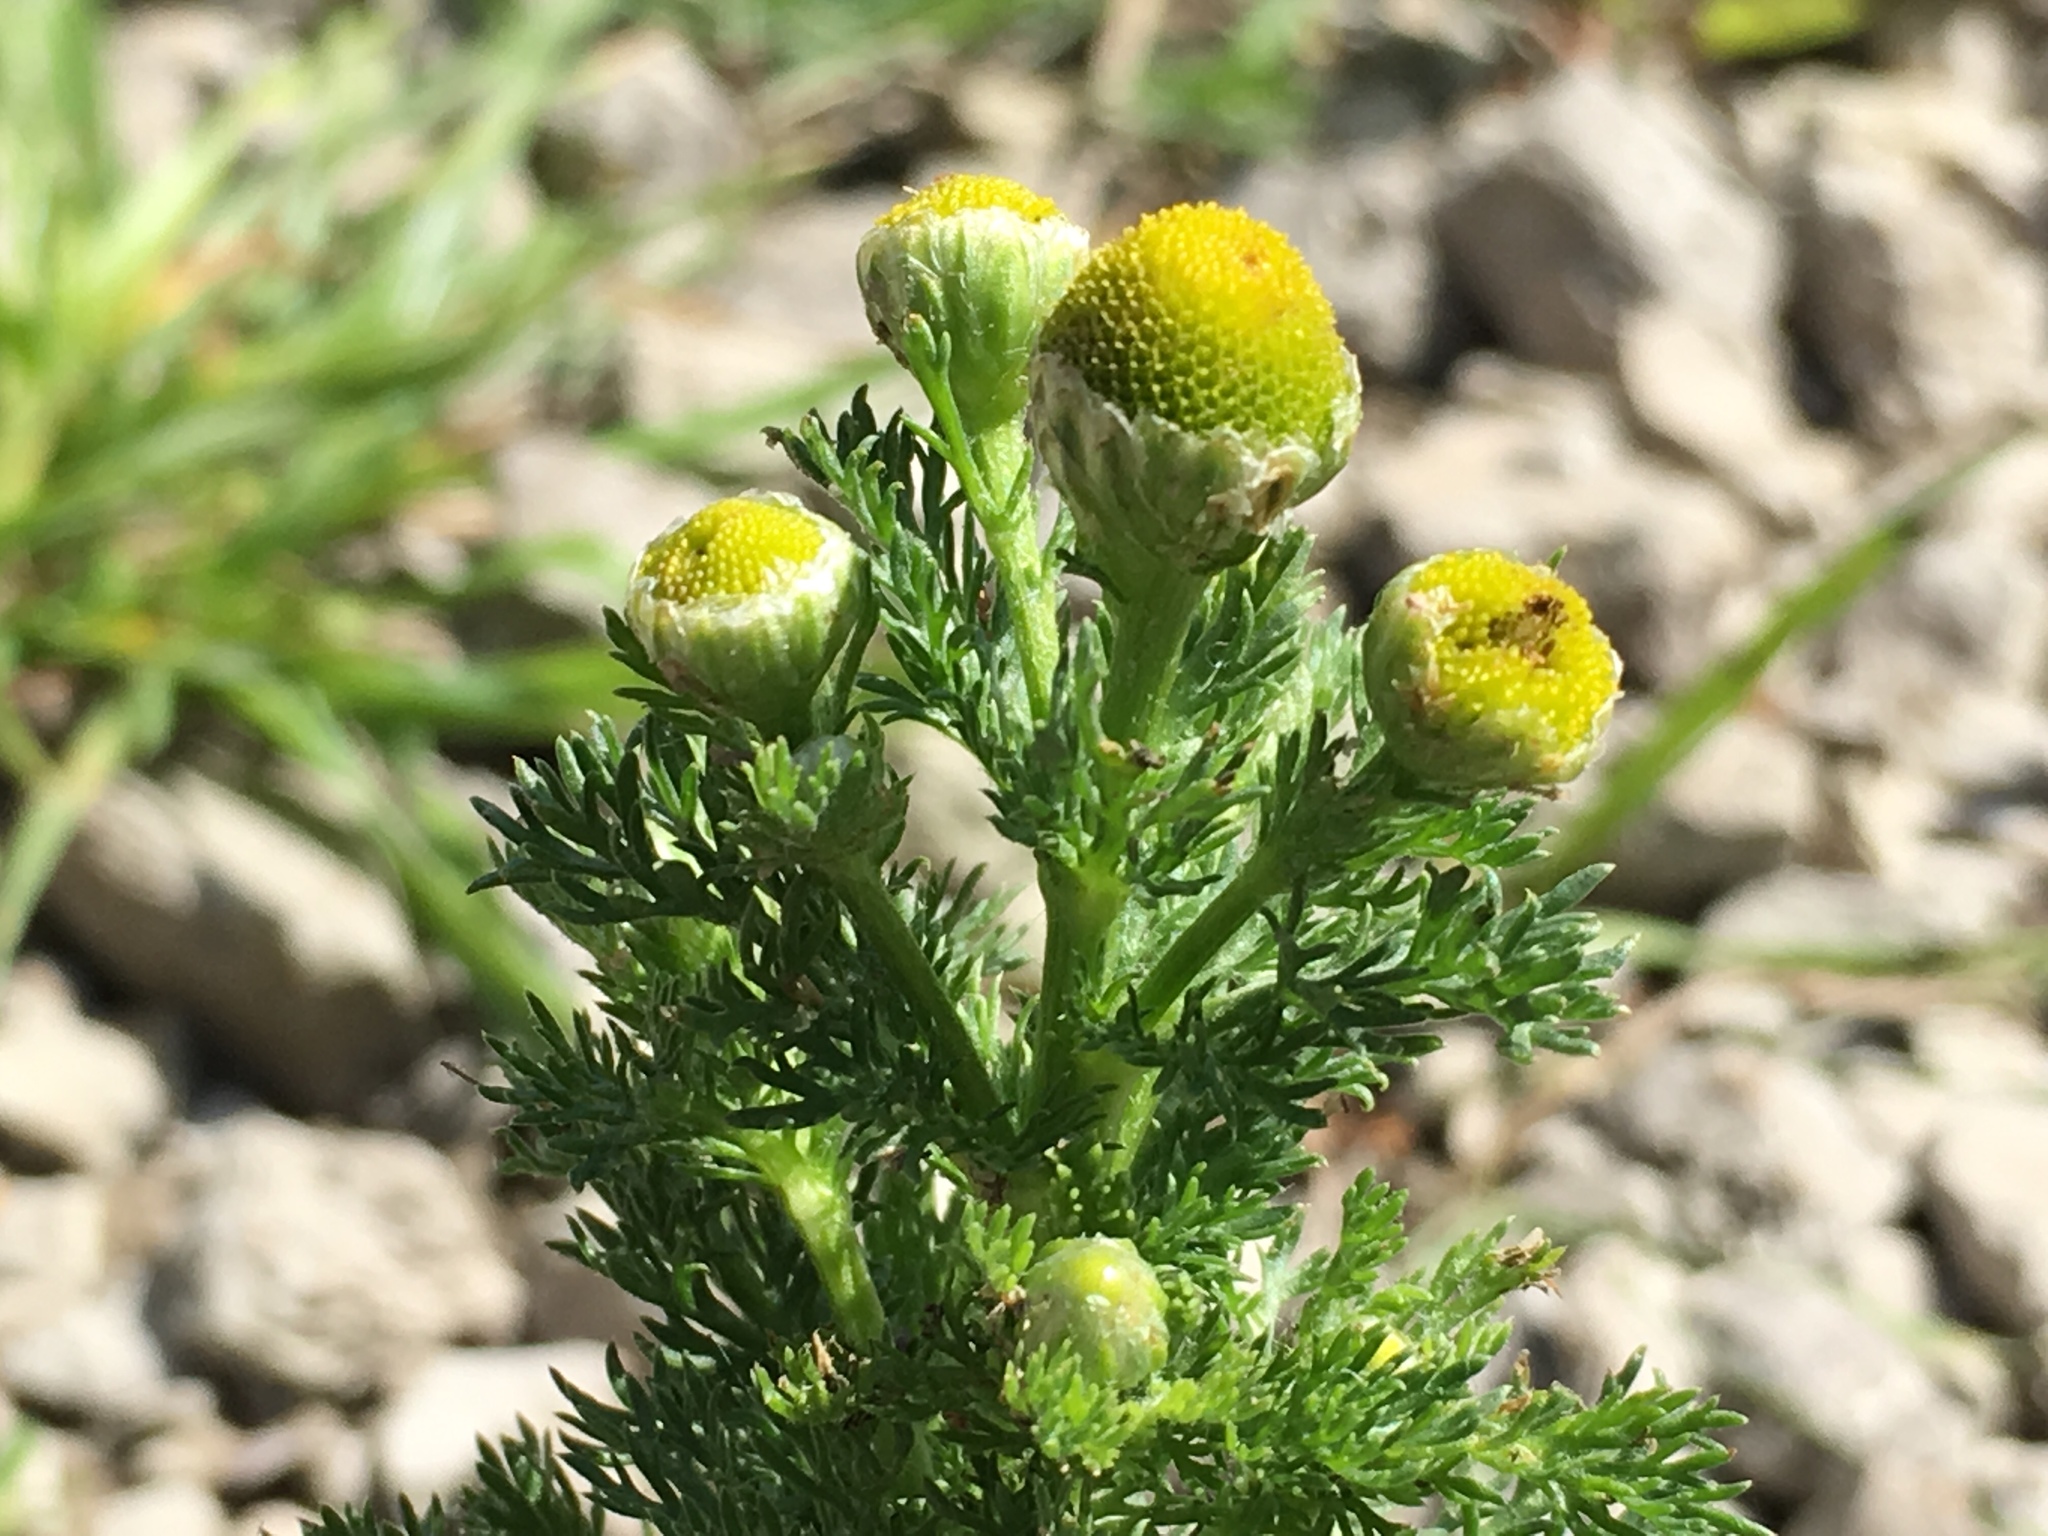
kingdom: Plantae
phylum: Tracheophyta
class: Magnoliopsida
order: Asterales
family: Asteraceae
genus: Matricaria
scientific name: Matricaria discoidea
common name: Disc mayweed
